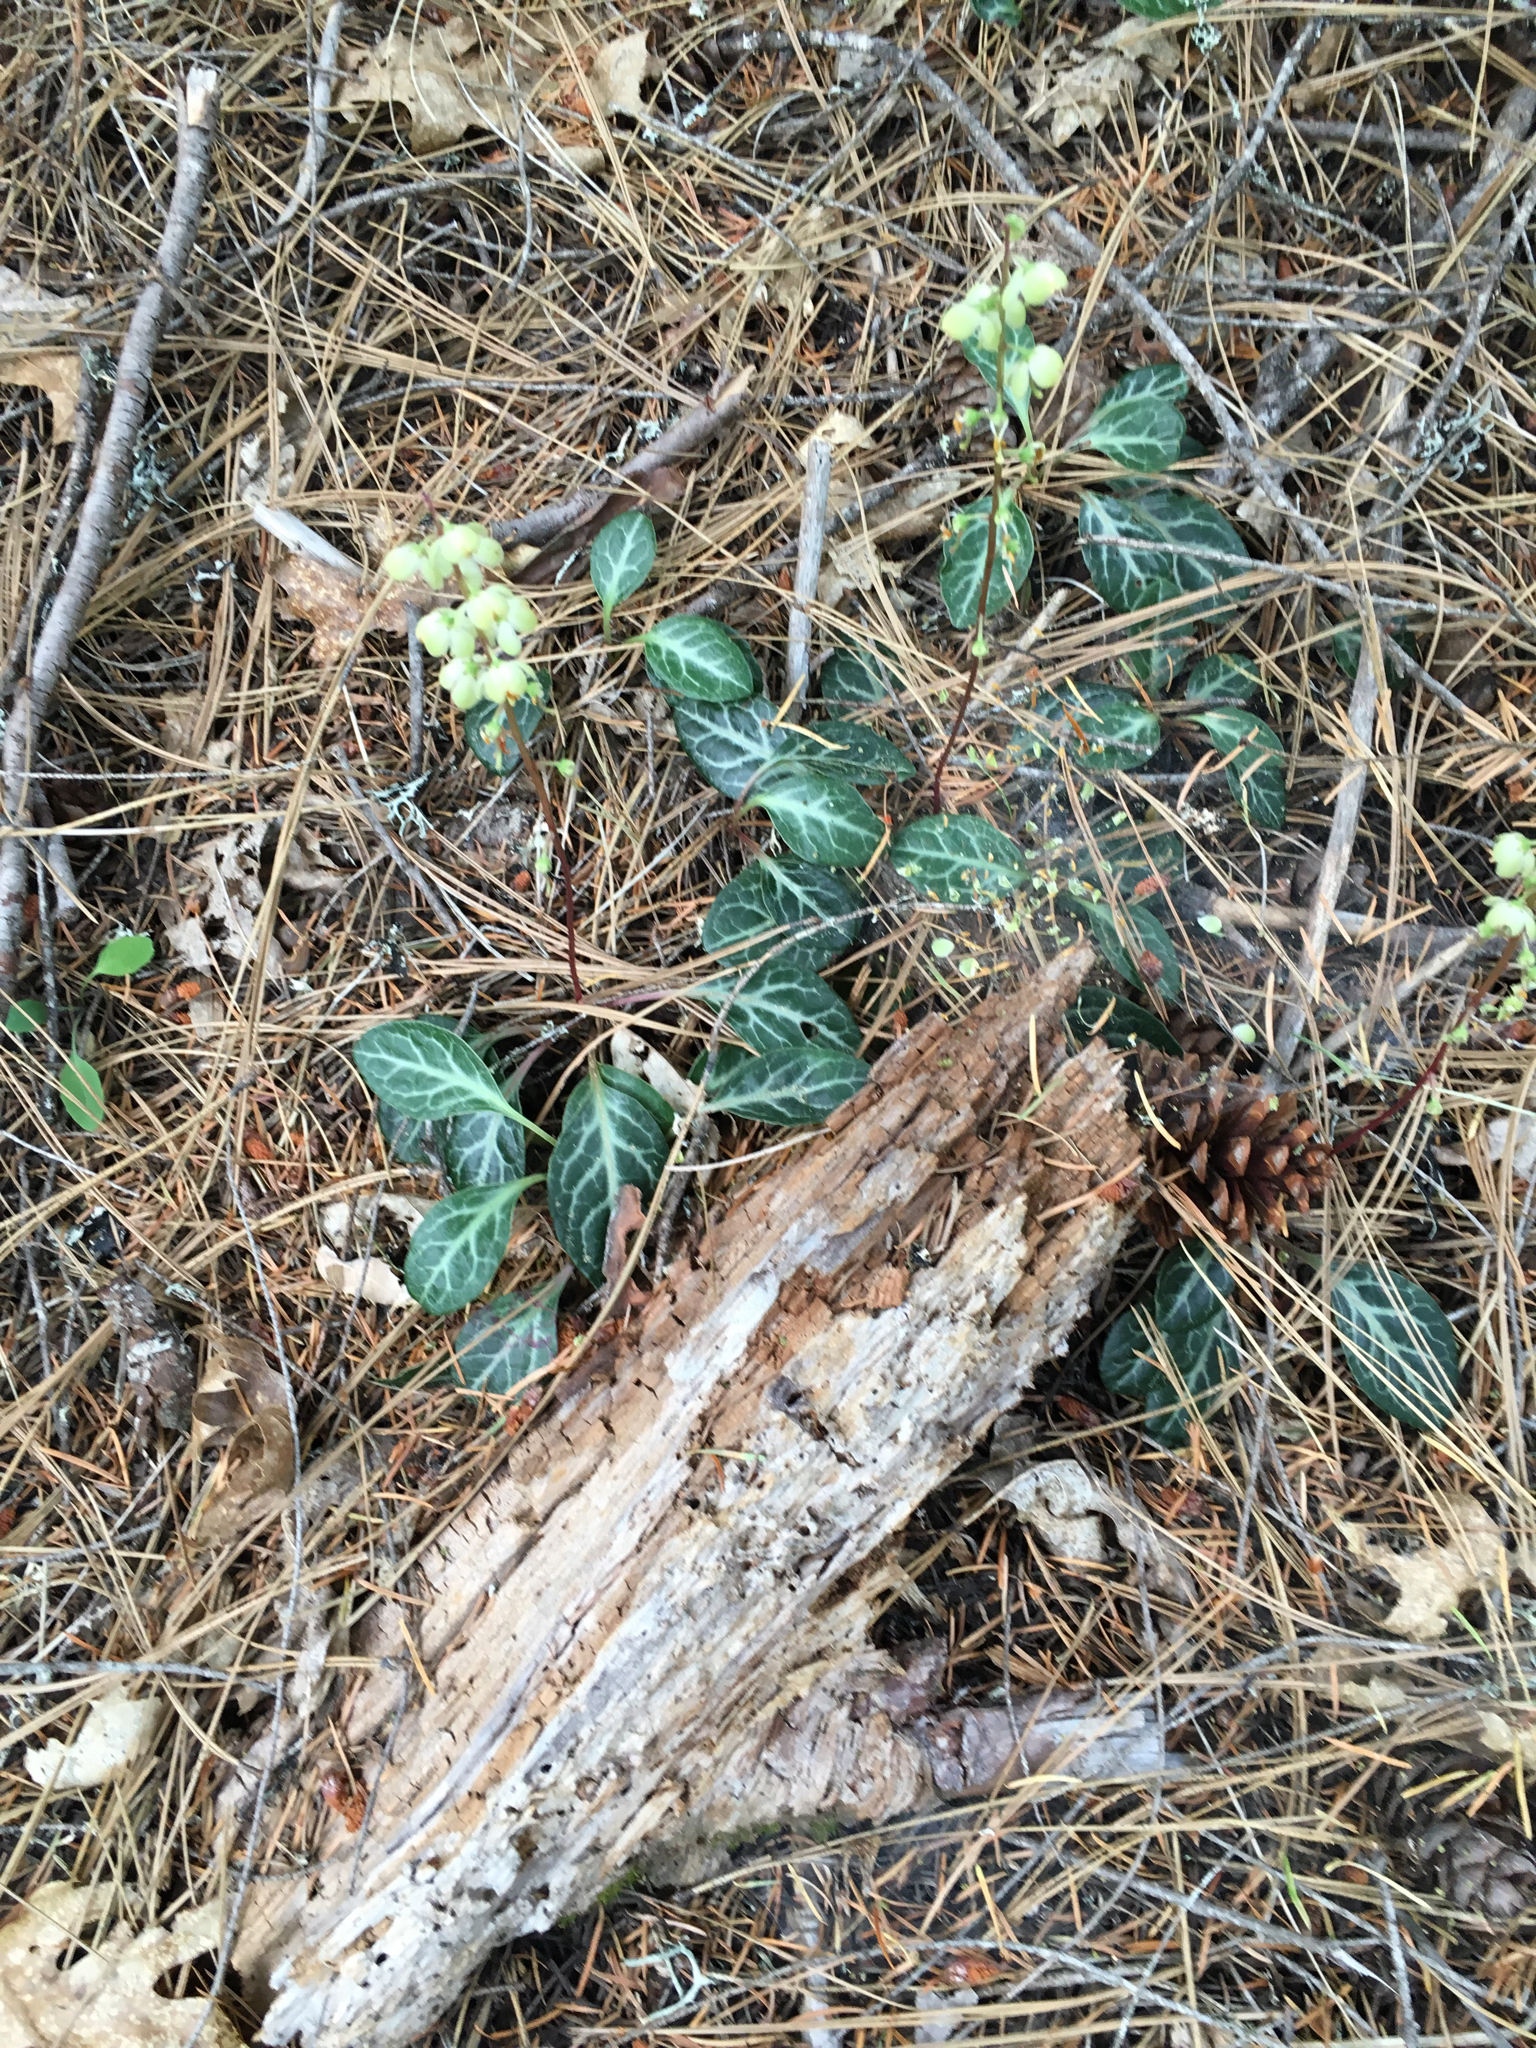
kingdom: Plantae
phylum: Tracheophyta
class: Magnoliopsida
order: Ericales
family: Ericaceae
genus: Pyrola
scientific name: Pyrola picta
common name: White-vein wintergreen
